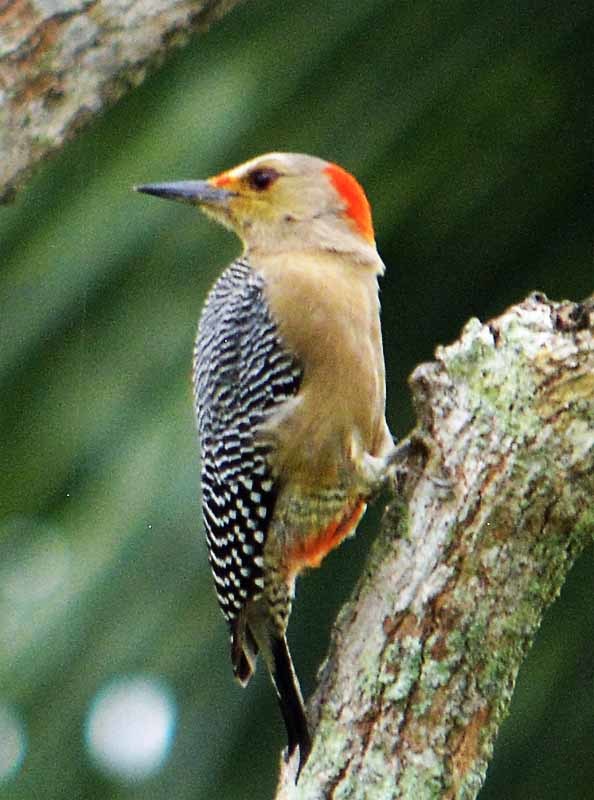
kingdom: Animalia
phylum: Chordata
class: Aves
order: Piciformes
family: Picidae
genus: Melanerpes
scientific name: Melanerpes aurifrons
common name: Golden-fronted woodpecker
